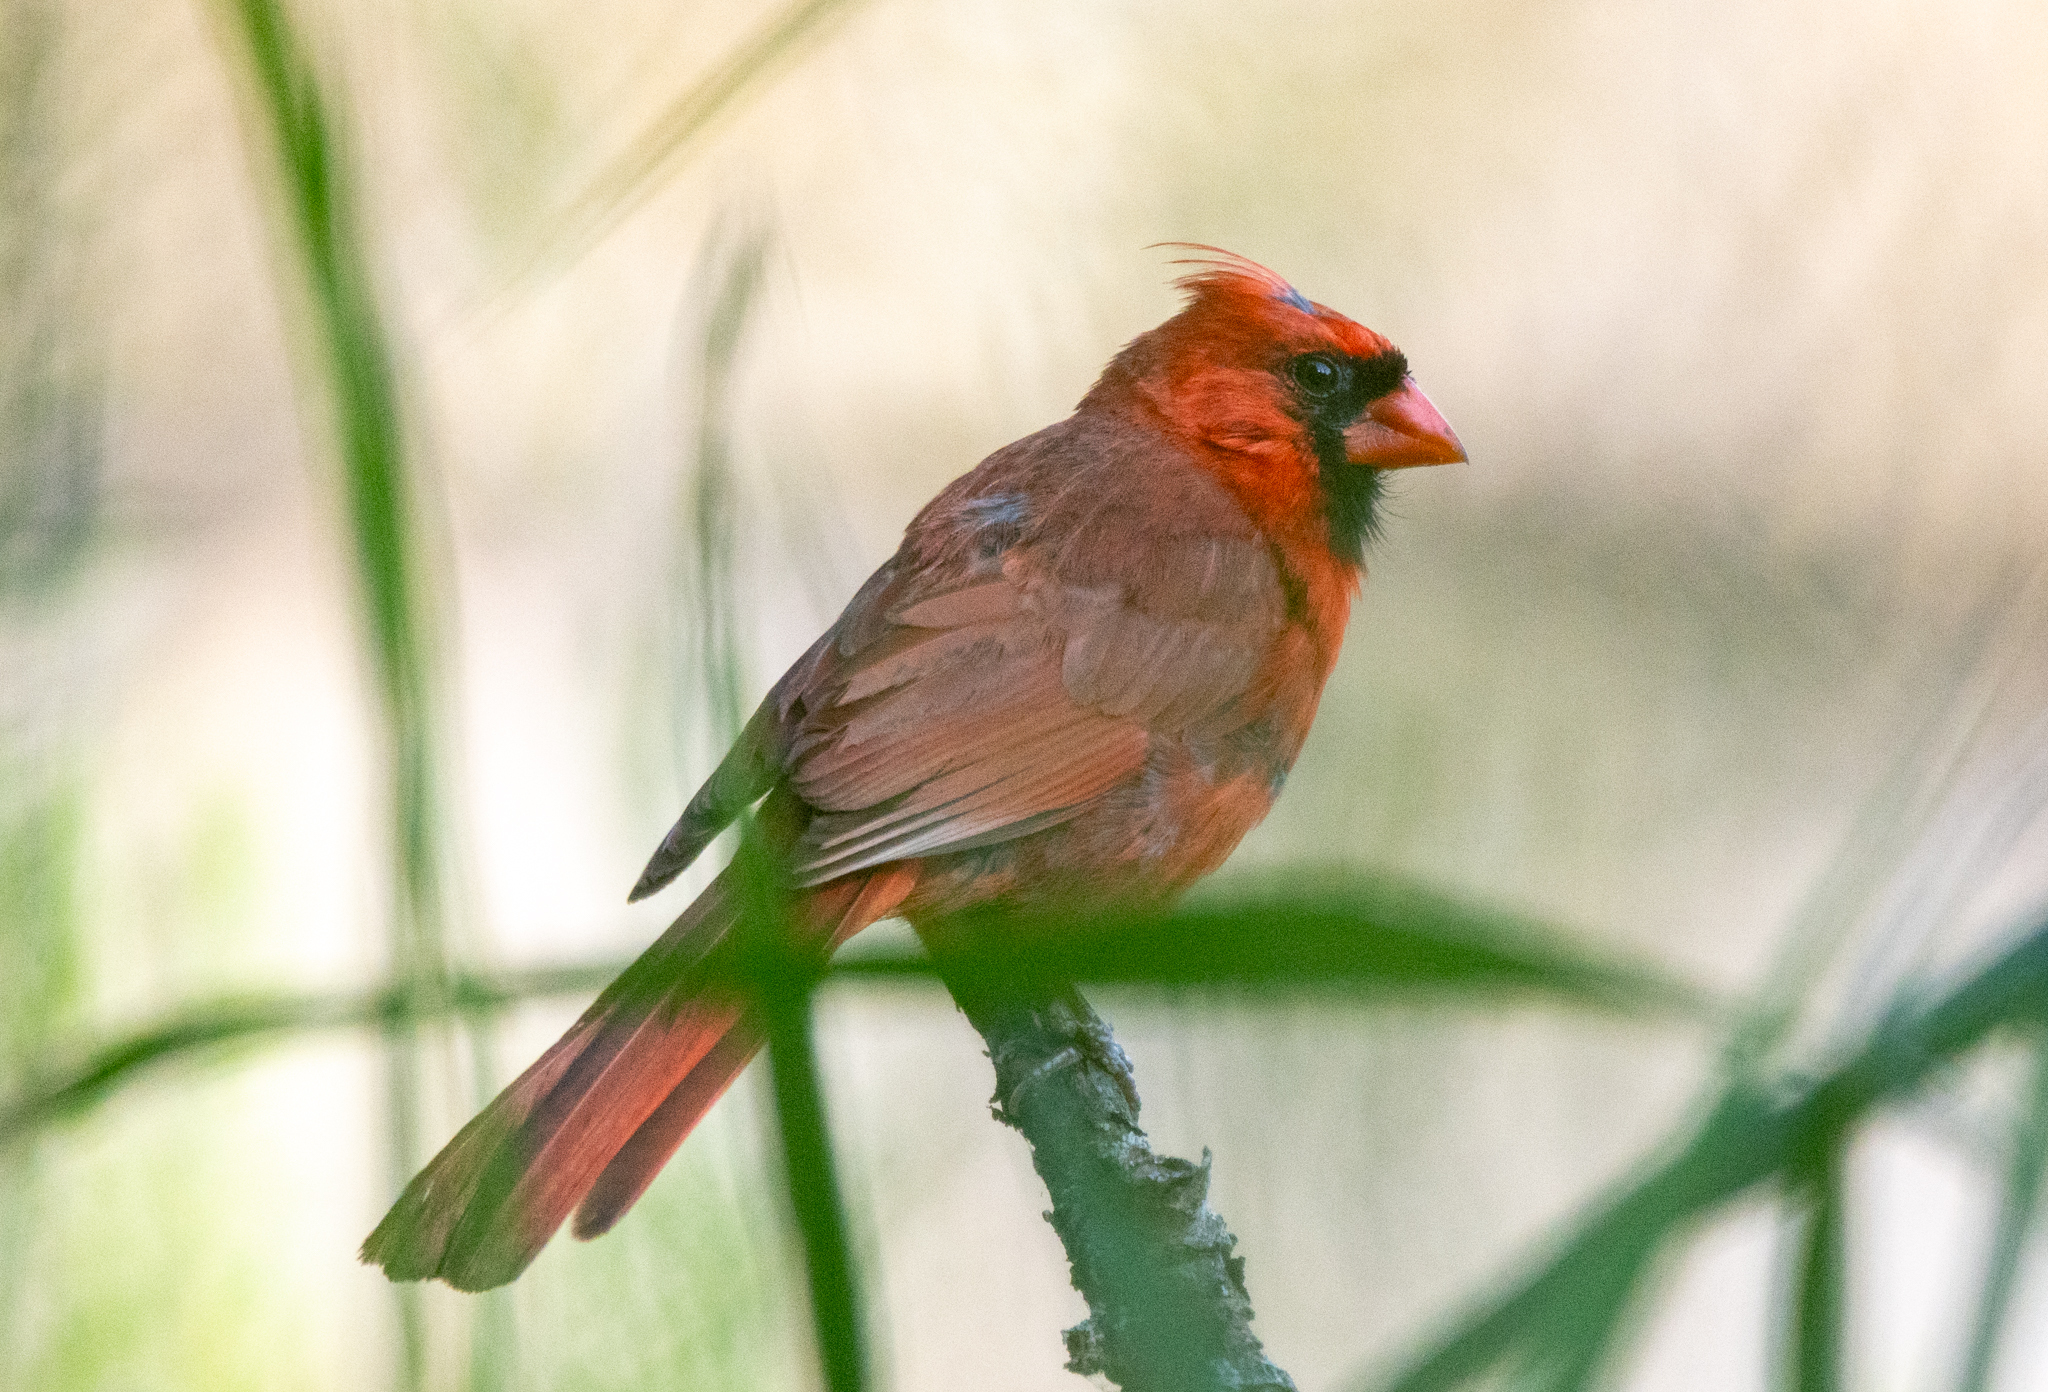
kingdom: Animalia
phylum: Chordata
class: Aves
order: Passeriformes
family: Cardinalidae
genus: Cardinalis
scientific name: Cardinalis cardinalis
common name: Northern cardinal
